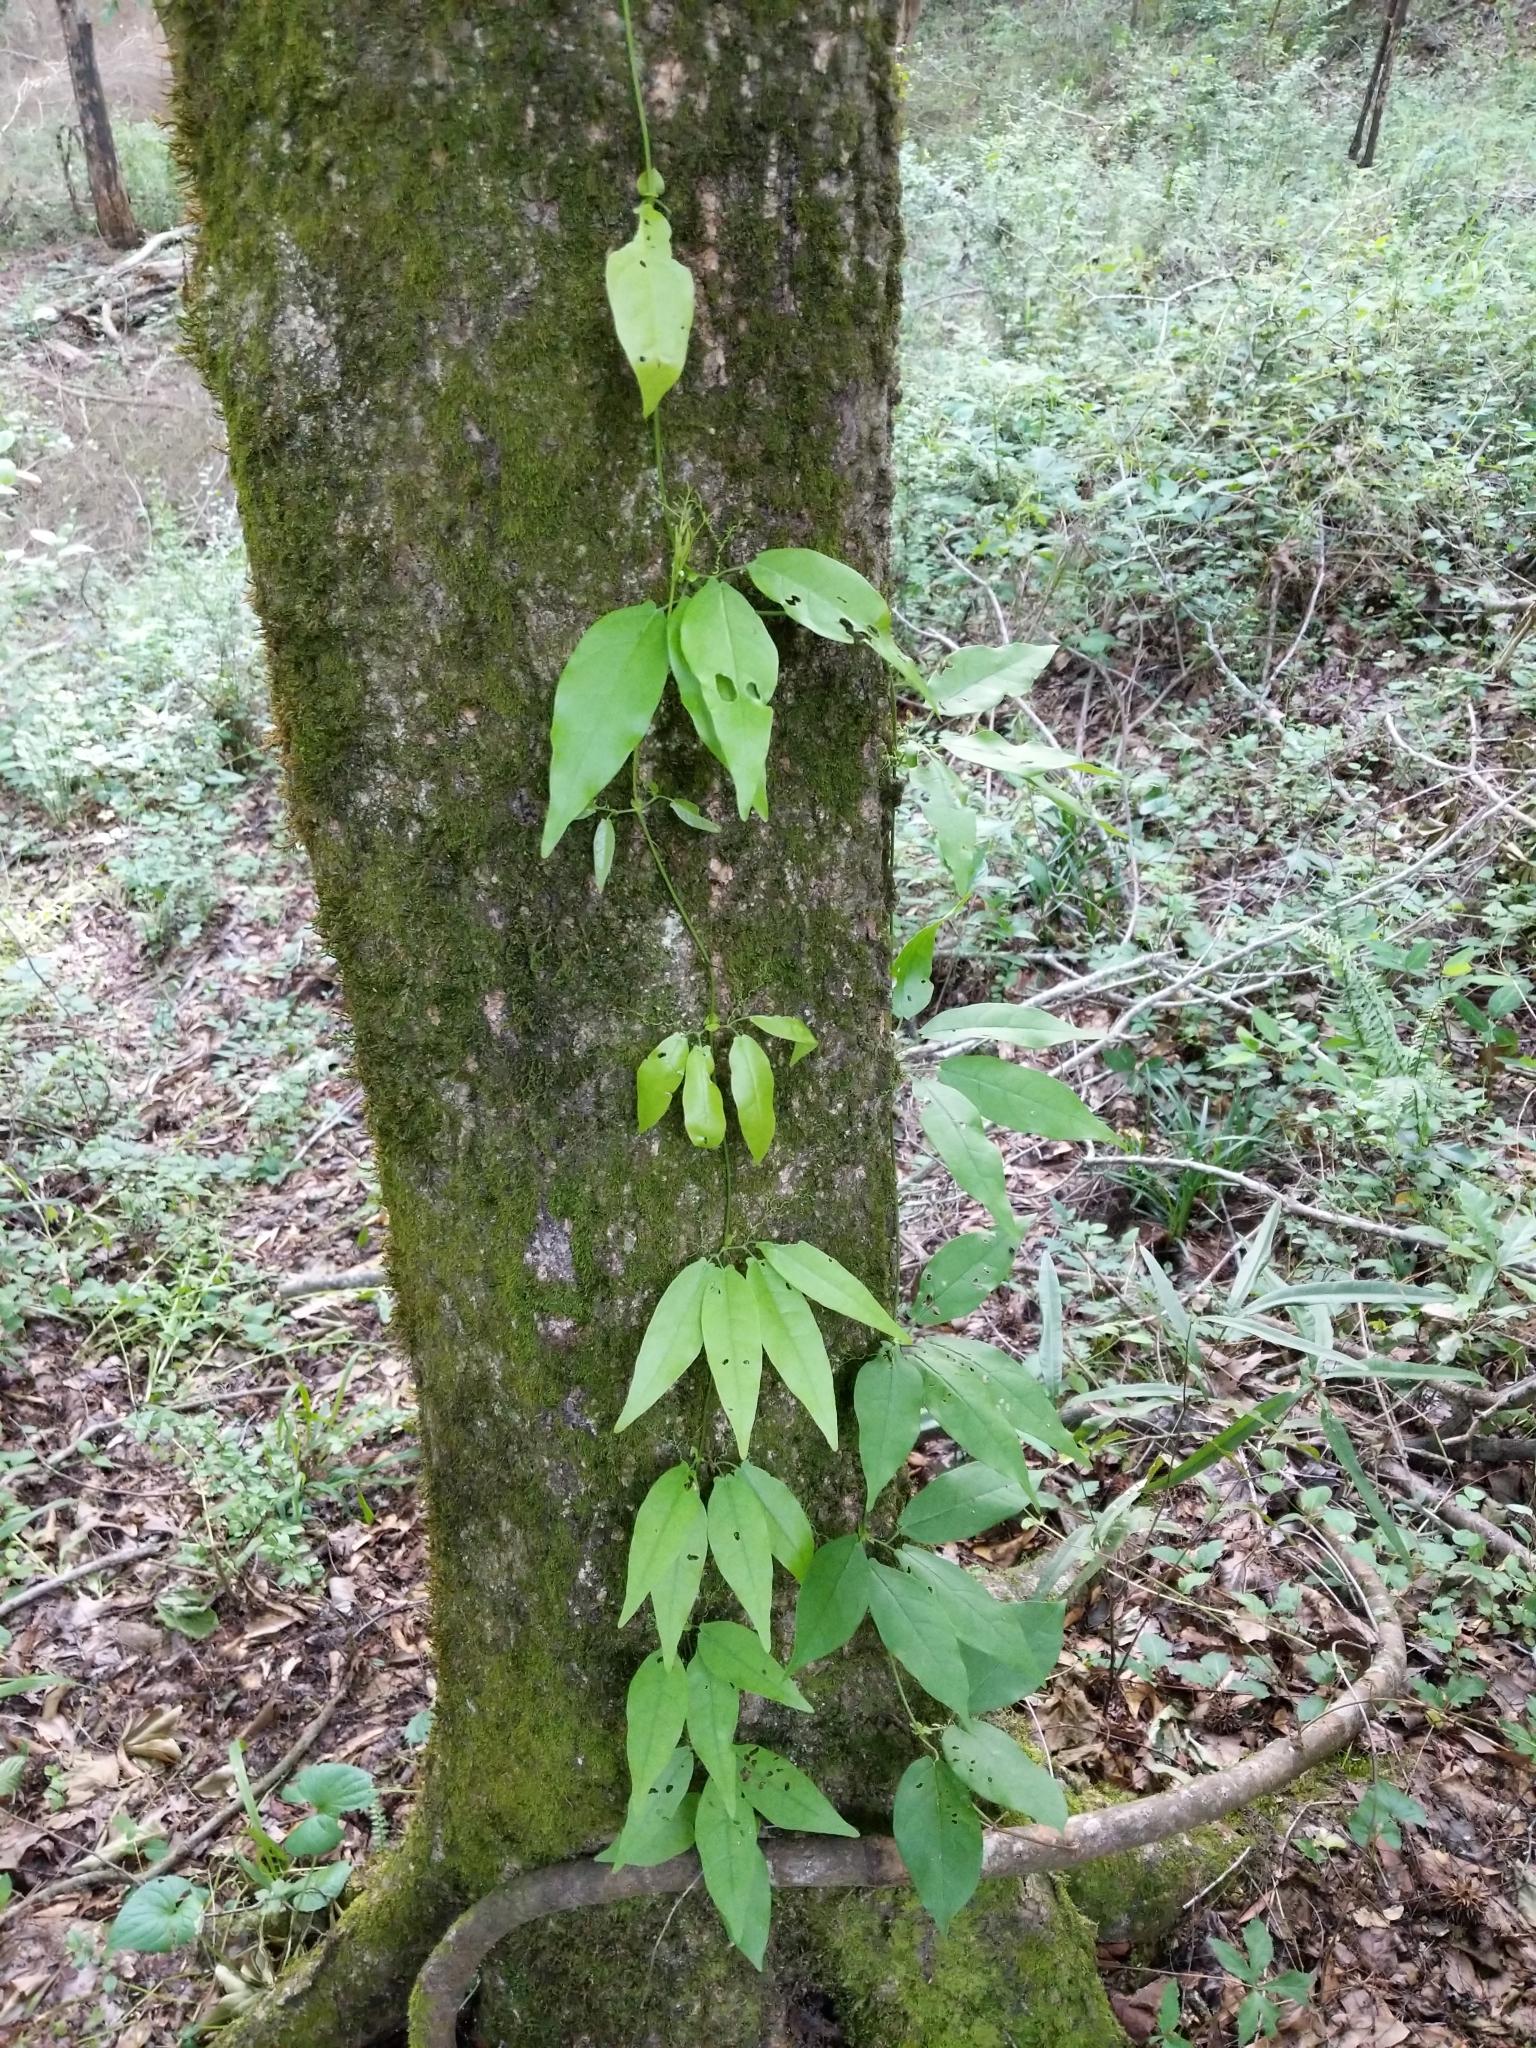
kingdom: Plantae
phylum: Tracheophyta
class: Magnoliopsida
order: Lamiales
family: Bignoniaceae
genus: Bignonia
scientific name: Bignonia capreolata
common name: Crossvine
